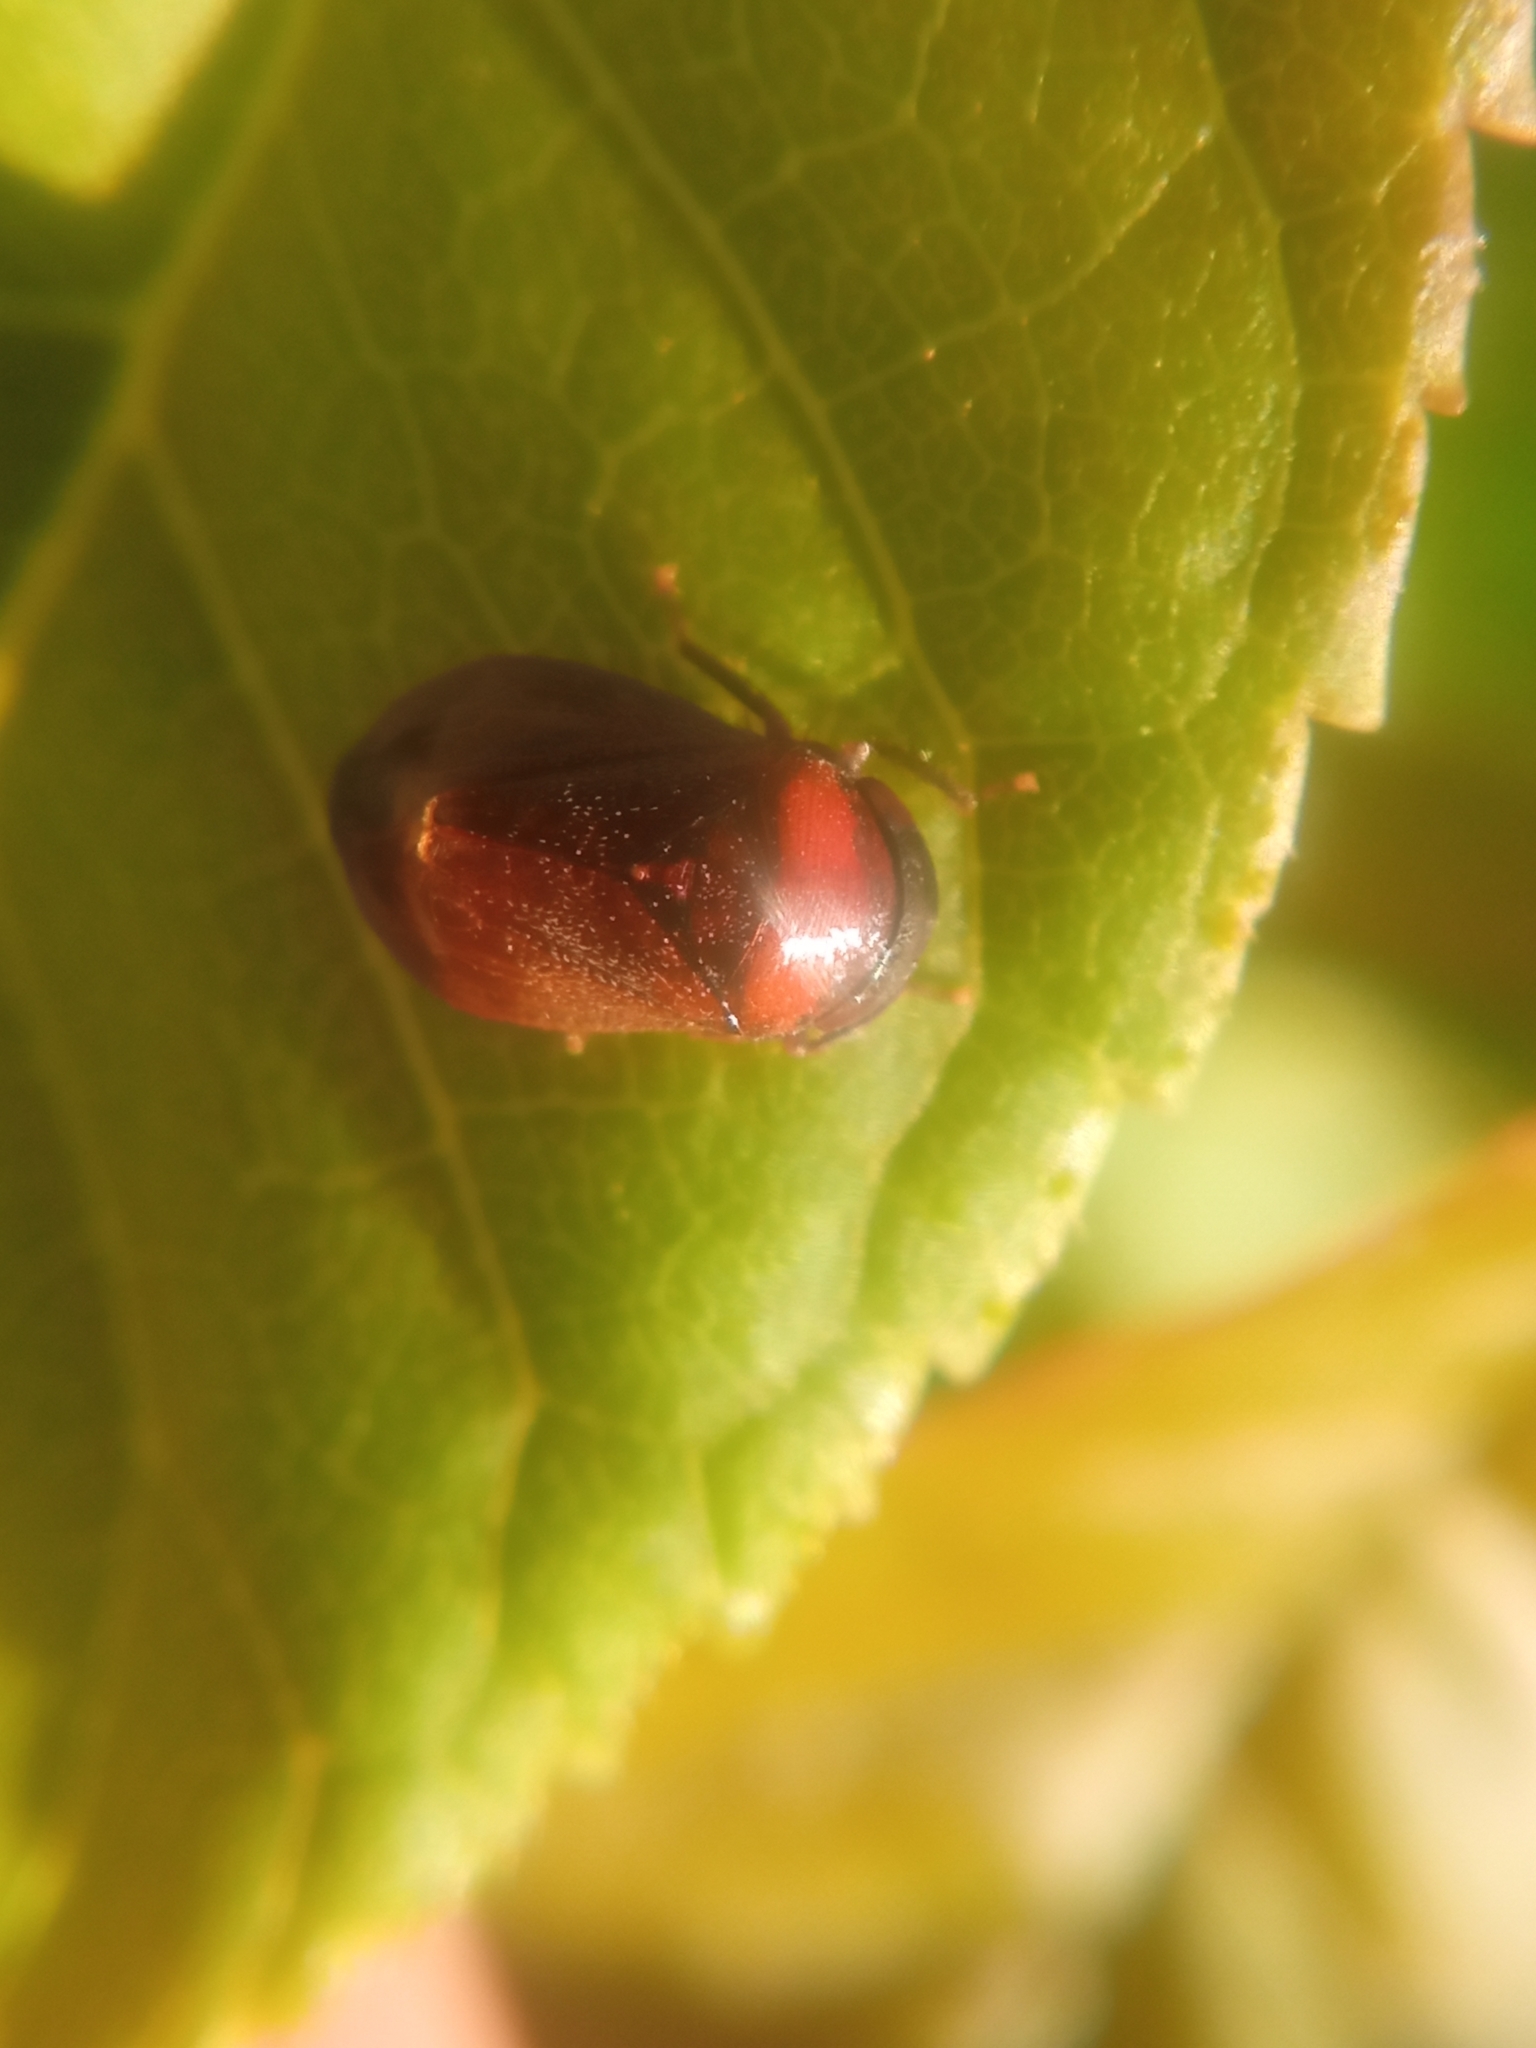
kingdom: Animalia
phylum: Arthropoda
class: Insecta
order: Hemiptera
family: Cicadellidae
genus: Penthimia
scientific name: Penthimia nigra
